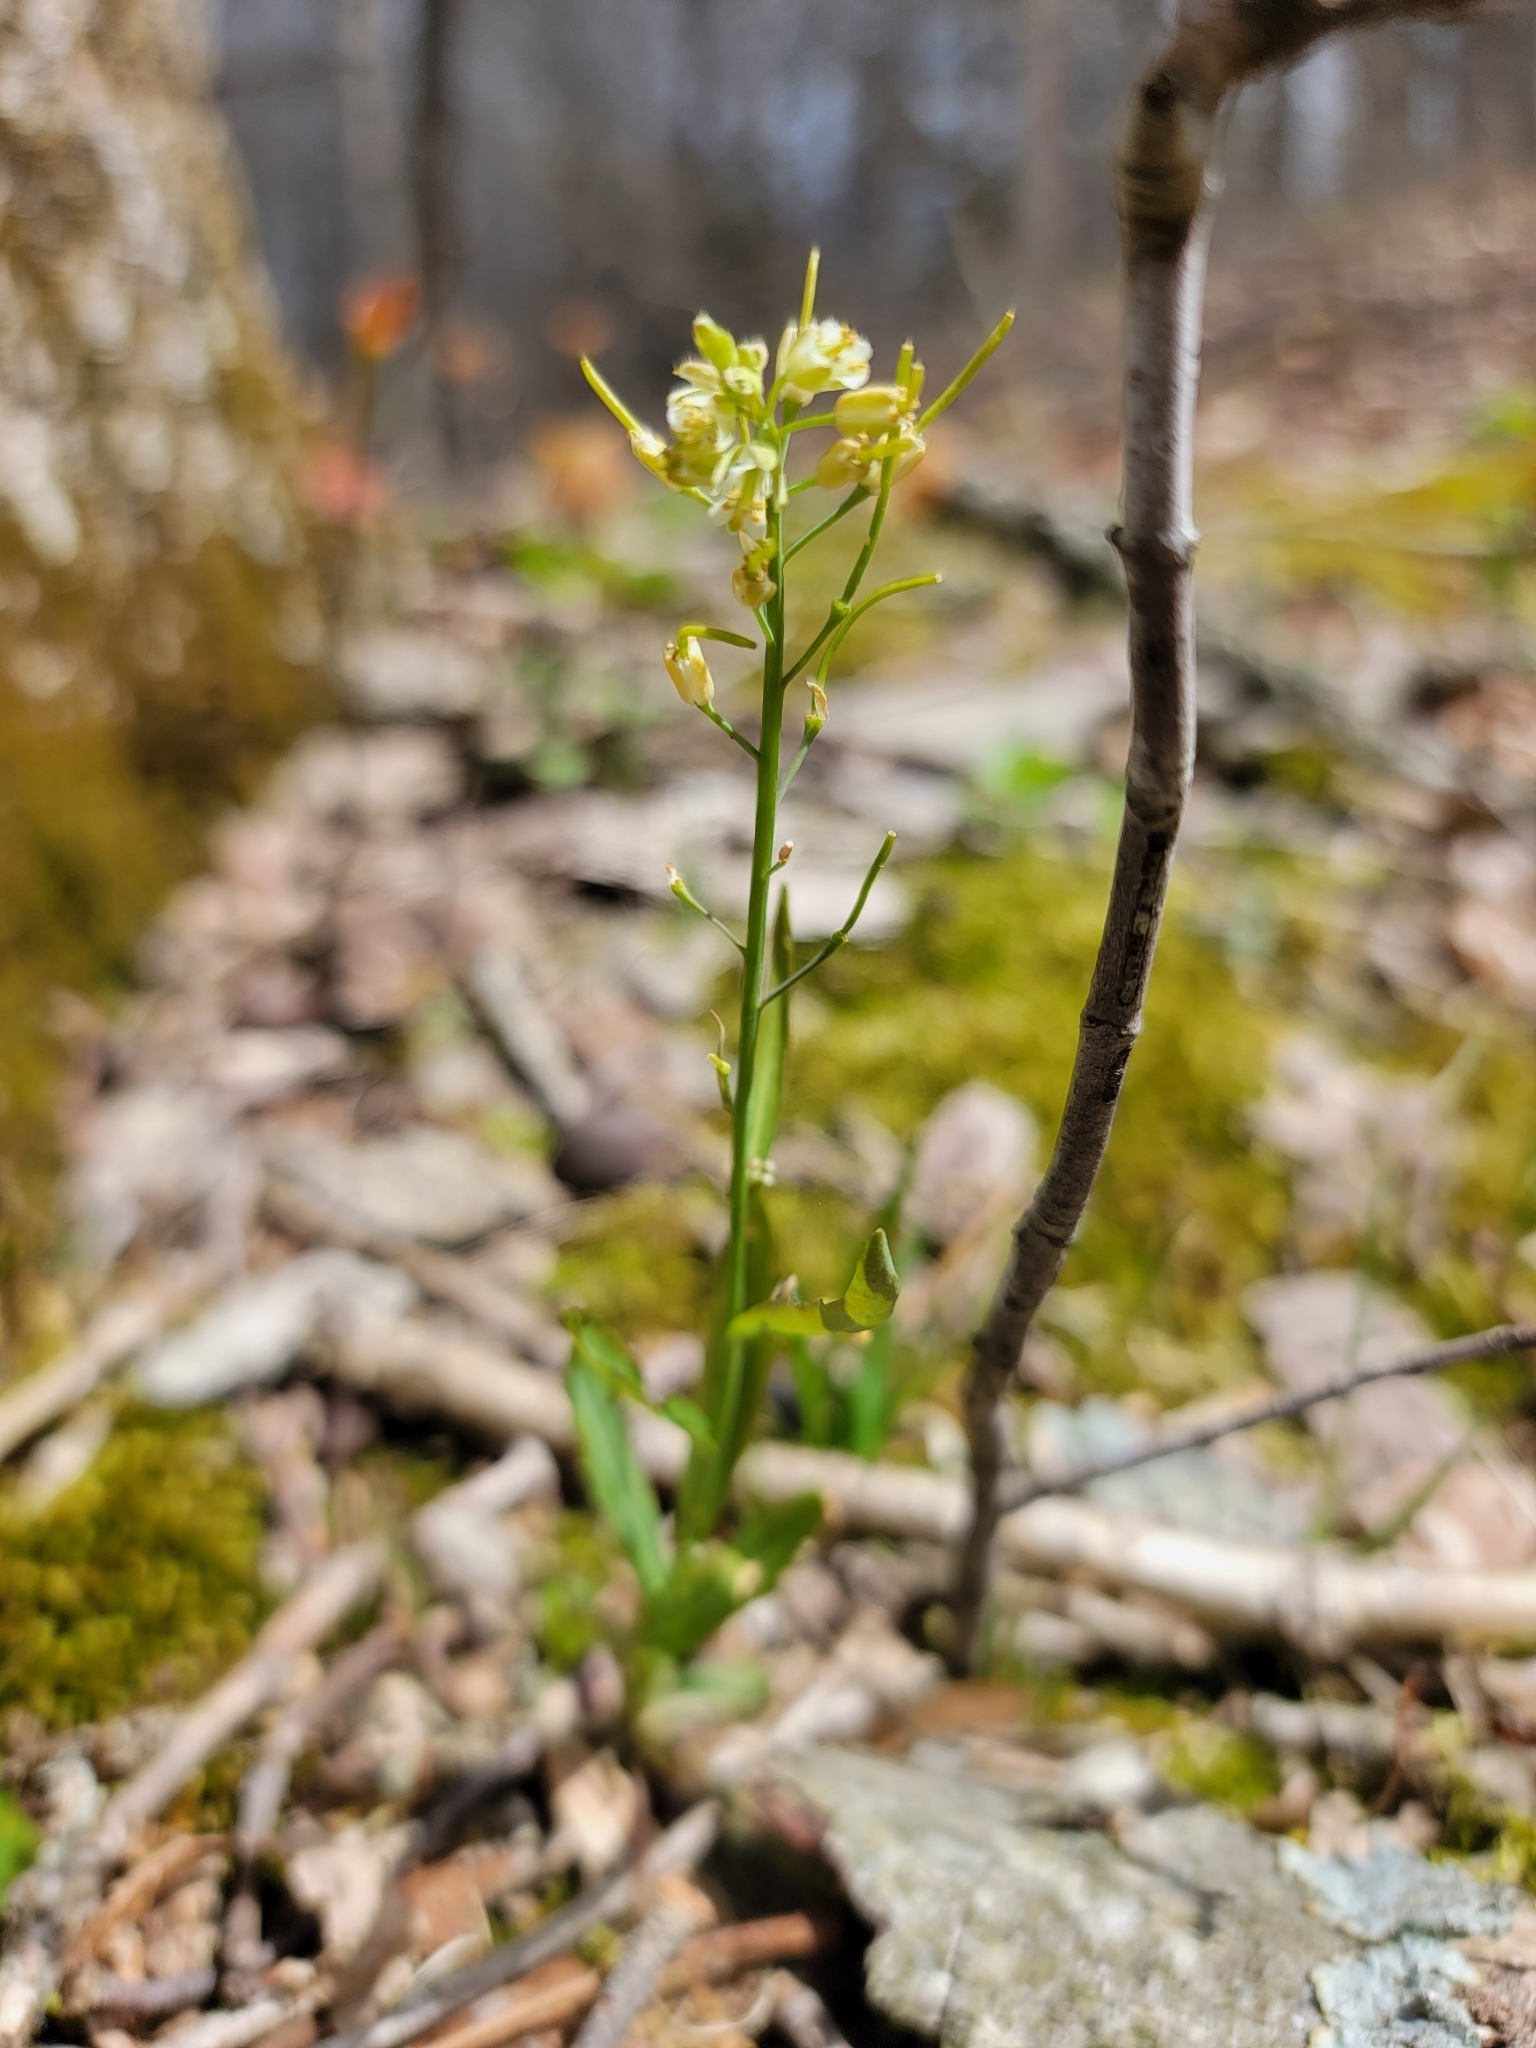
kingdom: Plantae
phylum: Tracheophyta
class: Magnoliopsida
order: Brassicales
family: Brassicaceae
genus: Borodinia
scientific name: Borodinia laevigata
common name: Smooth rockcress
